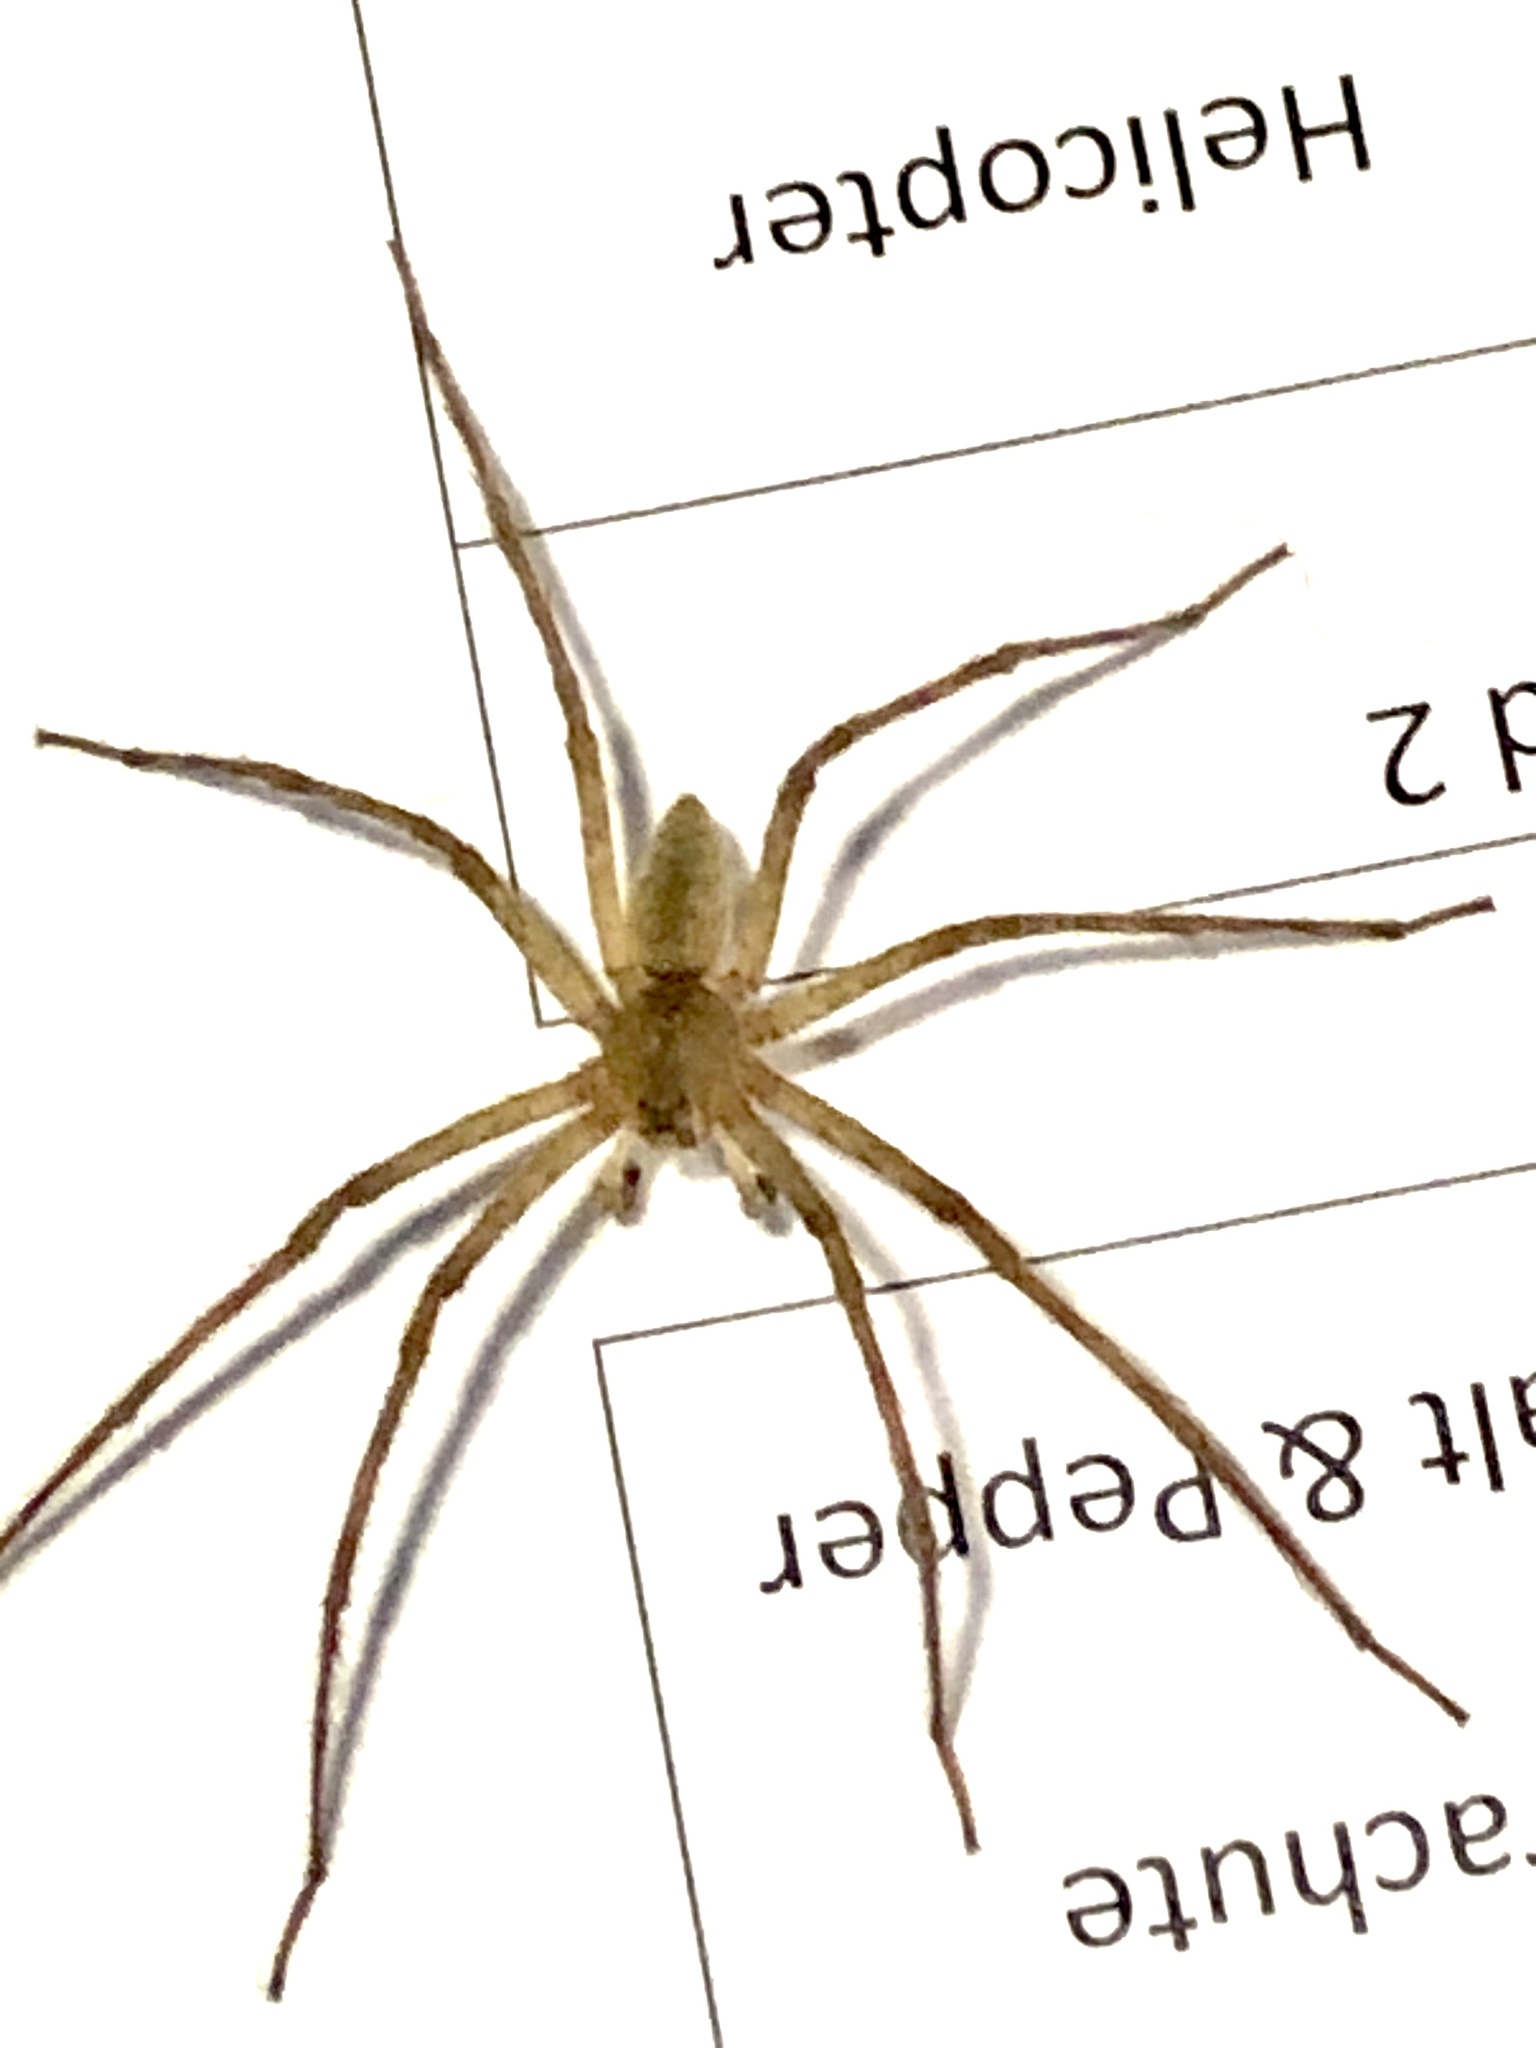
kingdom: Animalia
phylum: Arthropoda
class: Arachnida
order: Araneae
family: Pisauridae
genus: Pisaurina
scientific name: Pisaurina mira
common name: American nursery web spider
